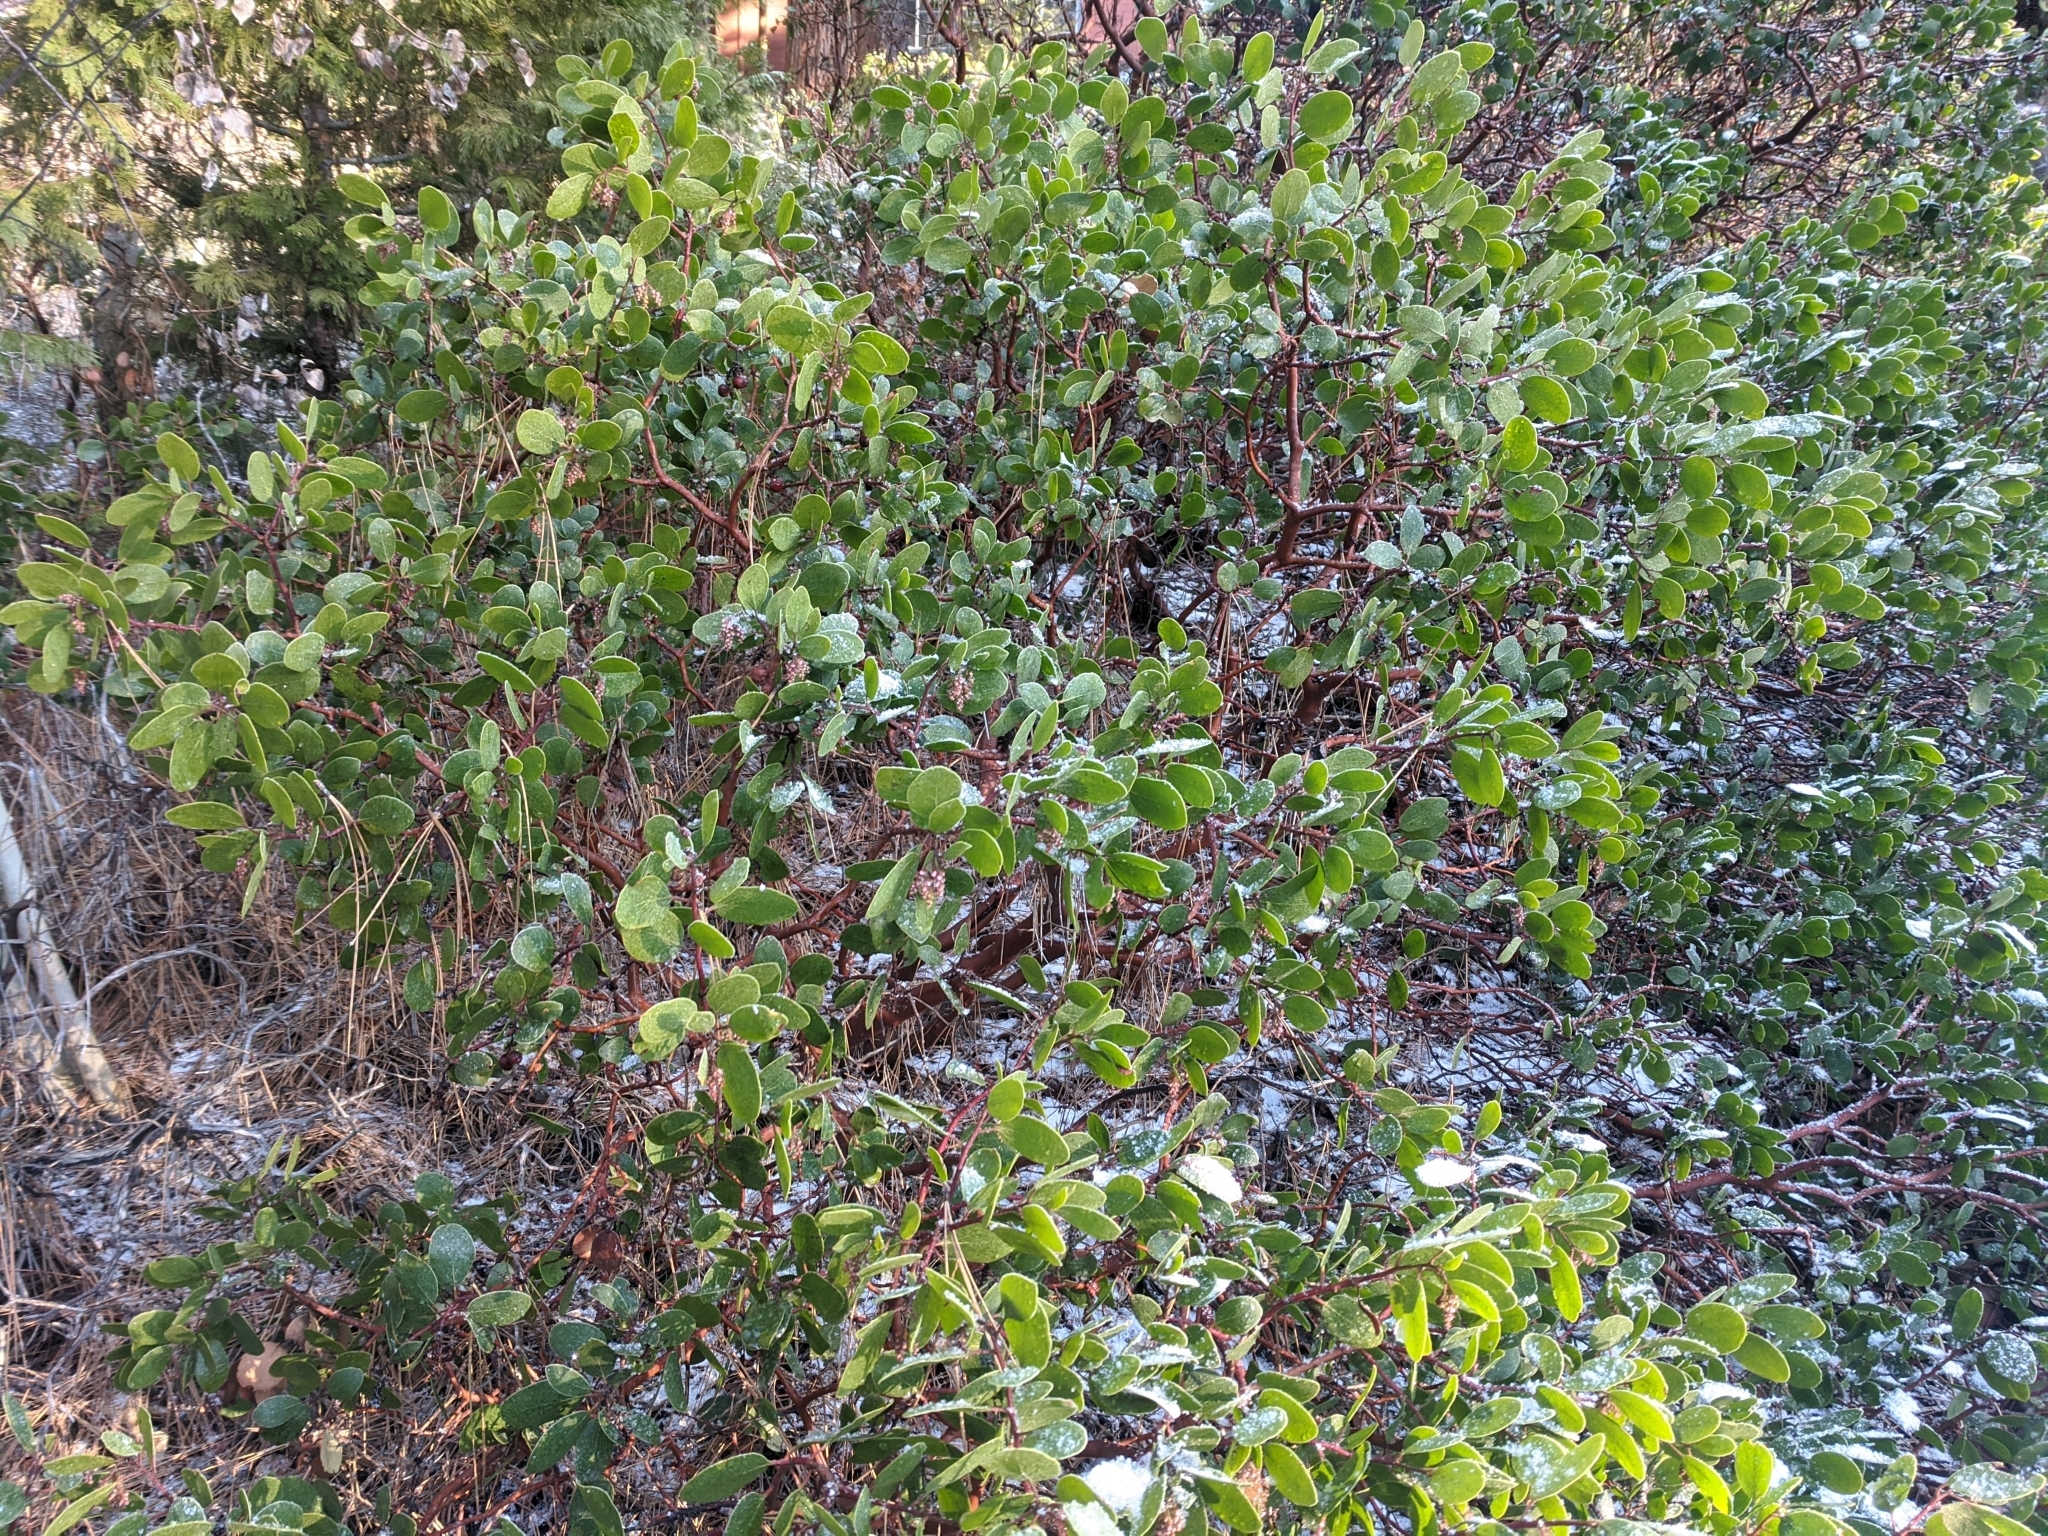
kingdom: Plantae
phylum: Tracheophyta
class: Magnoliopsida
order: Ericales
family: Ericaceae
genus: Arctostaphylos
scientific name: Arctostaphylos patula
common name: Green-leaf manzanita
